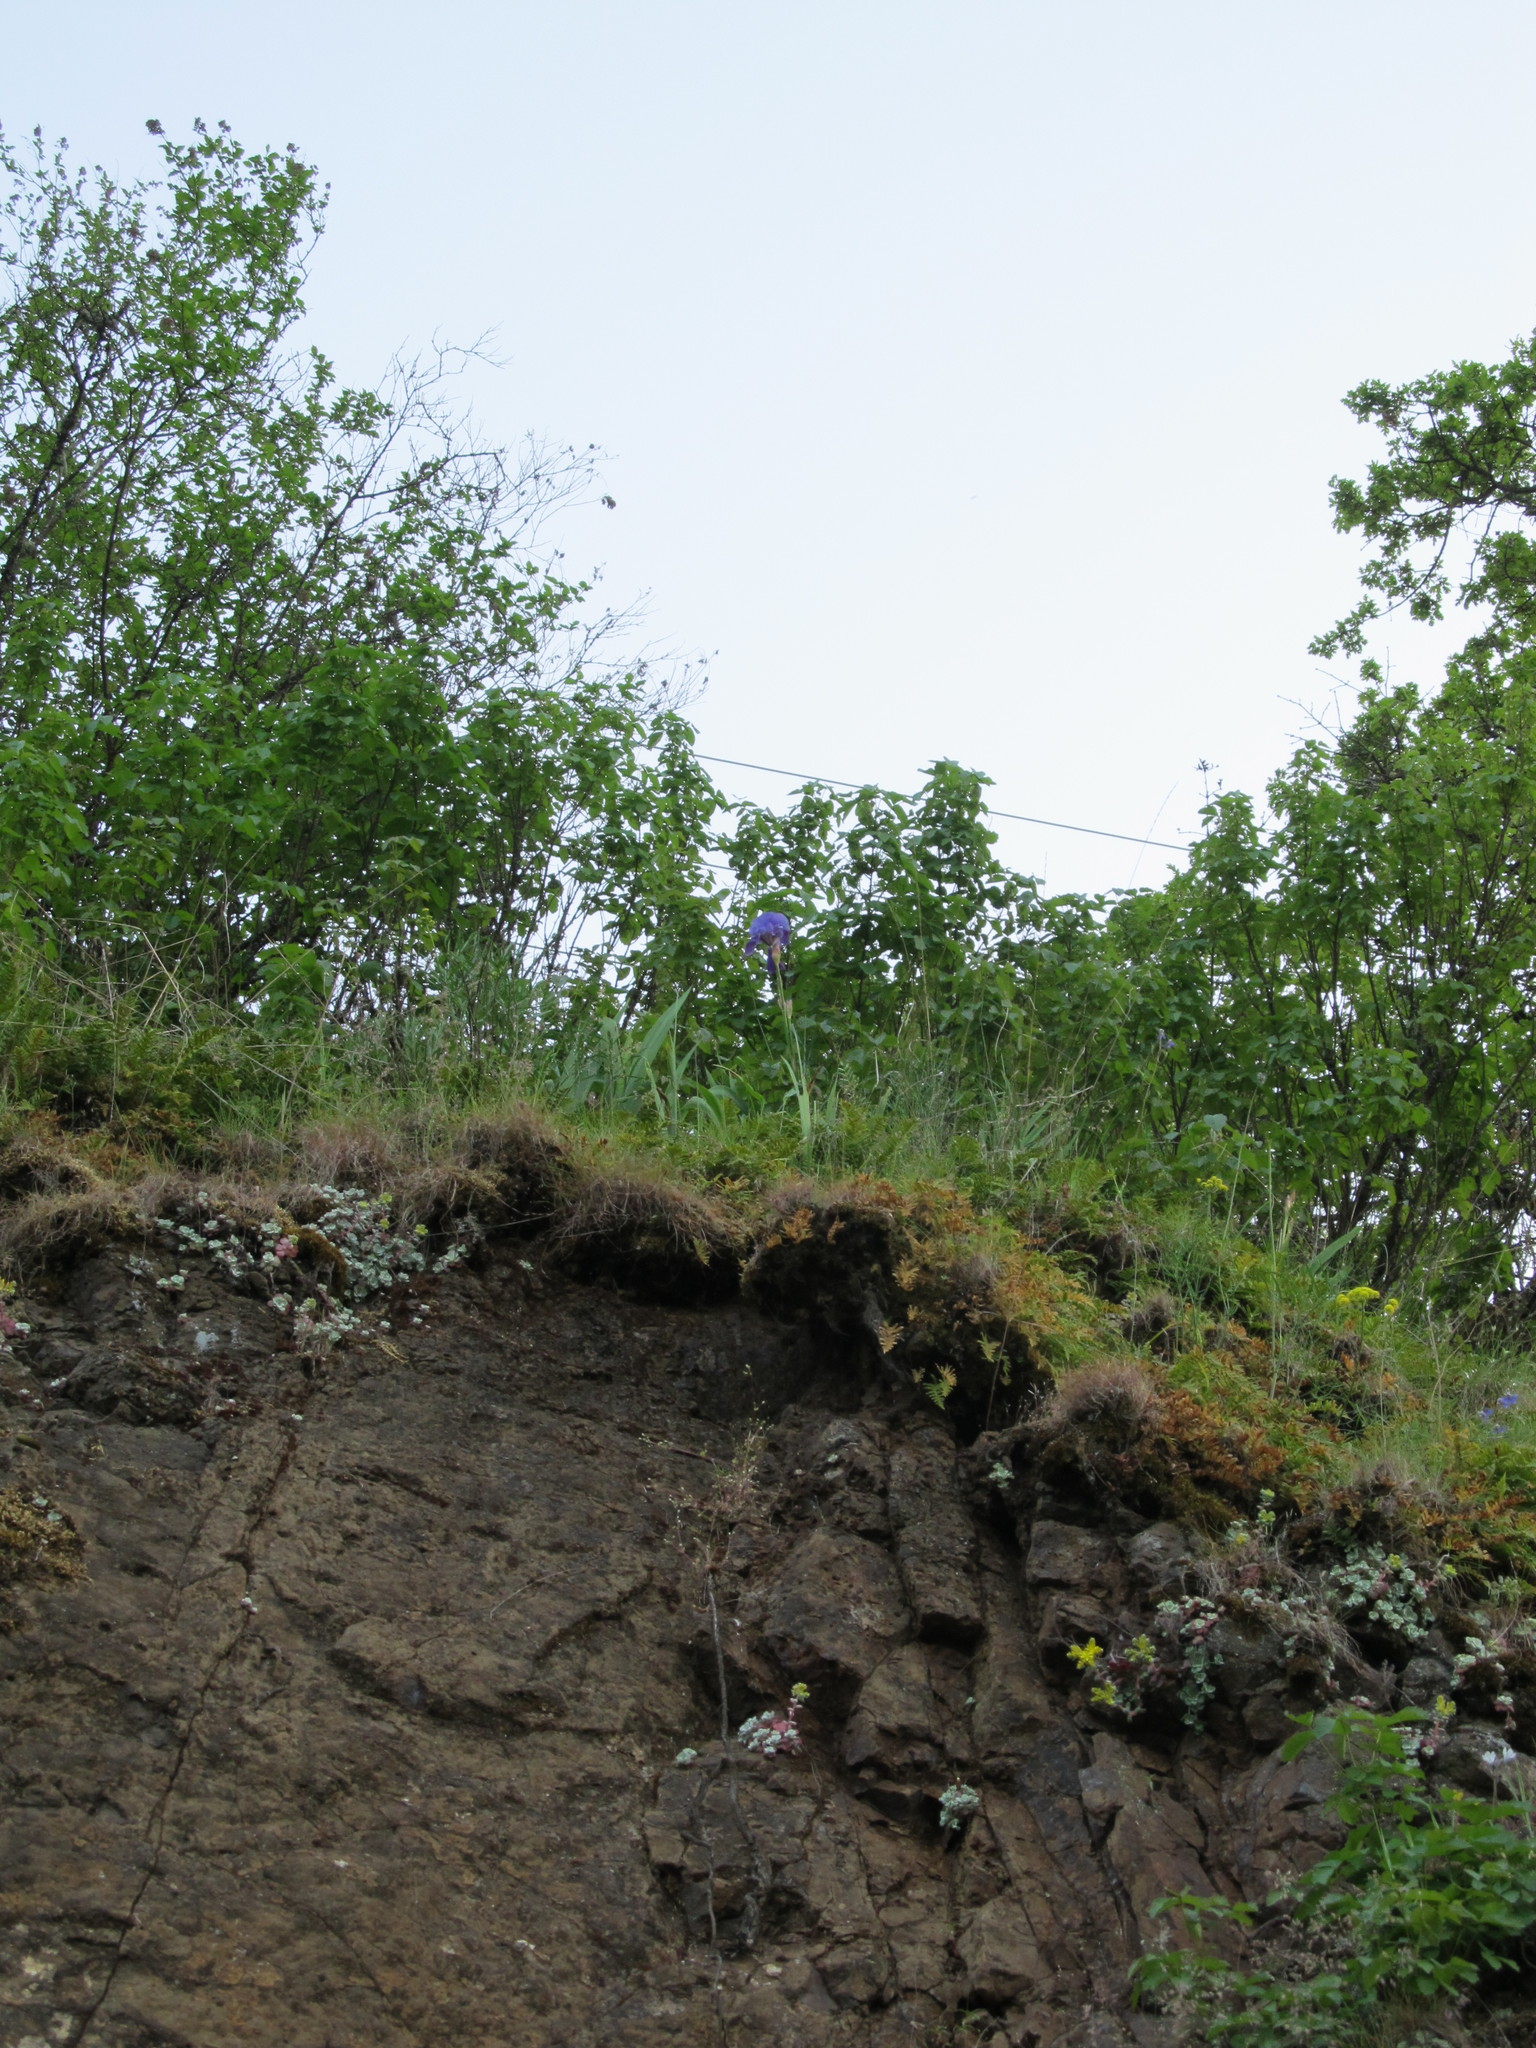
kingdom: Plantae
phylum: Tracheophyta
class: Liliopsida
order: Asparagales
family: Iridaceae
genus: Iris
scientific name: Iris germanica
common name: German iris
